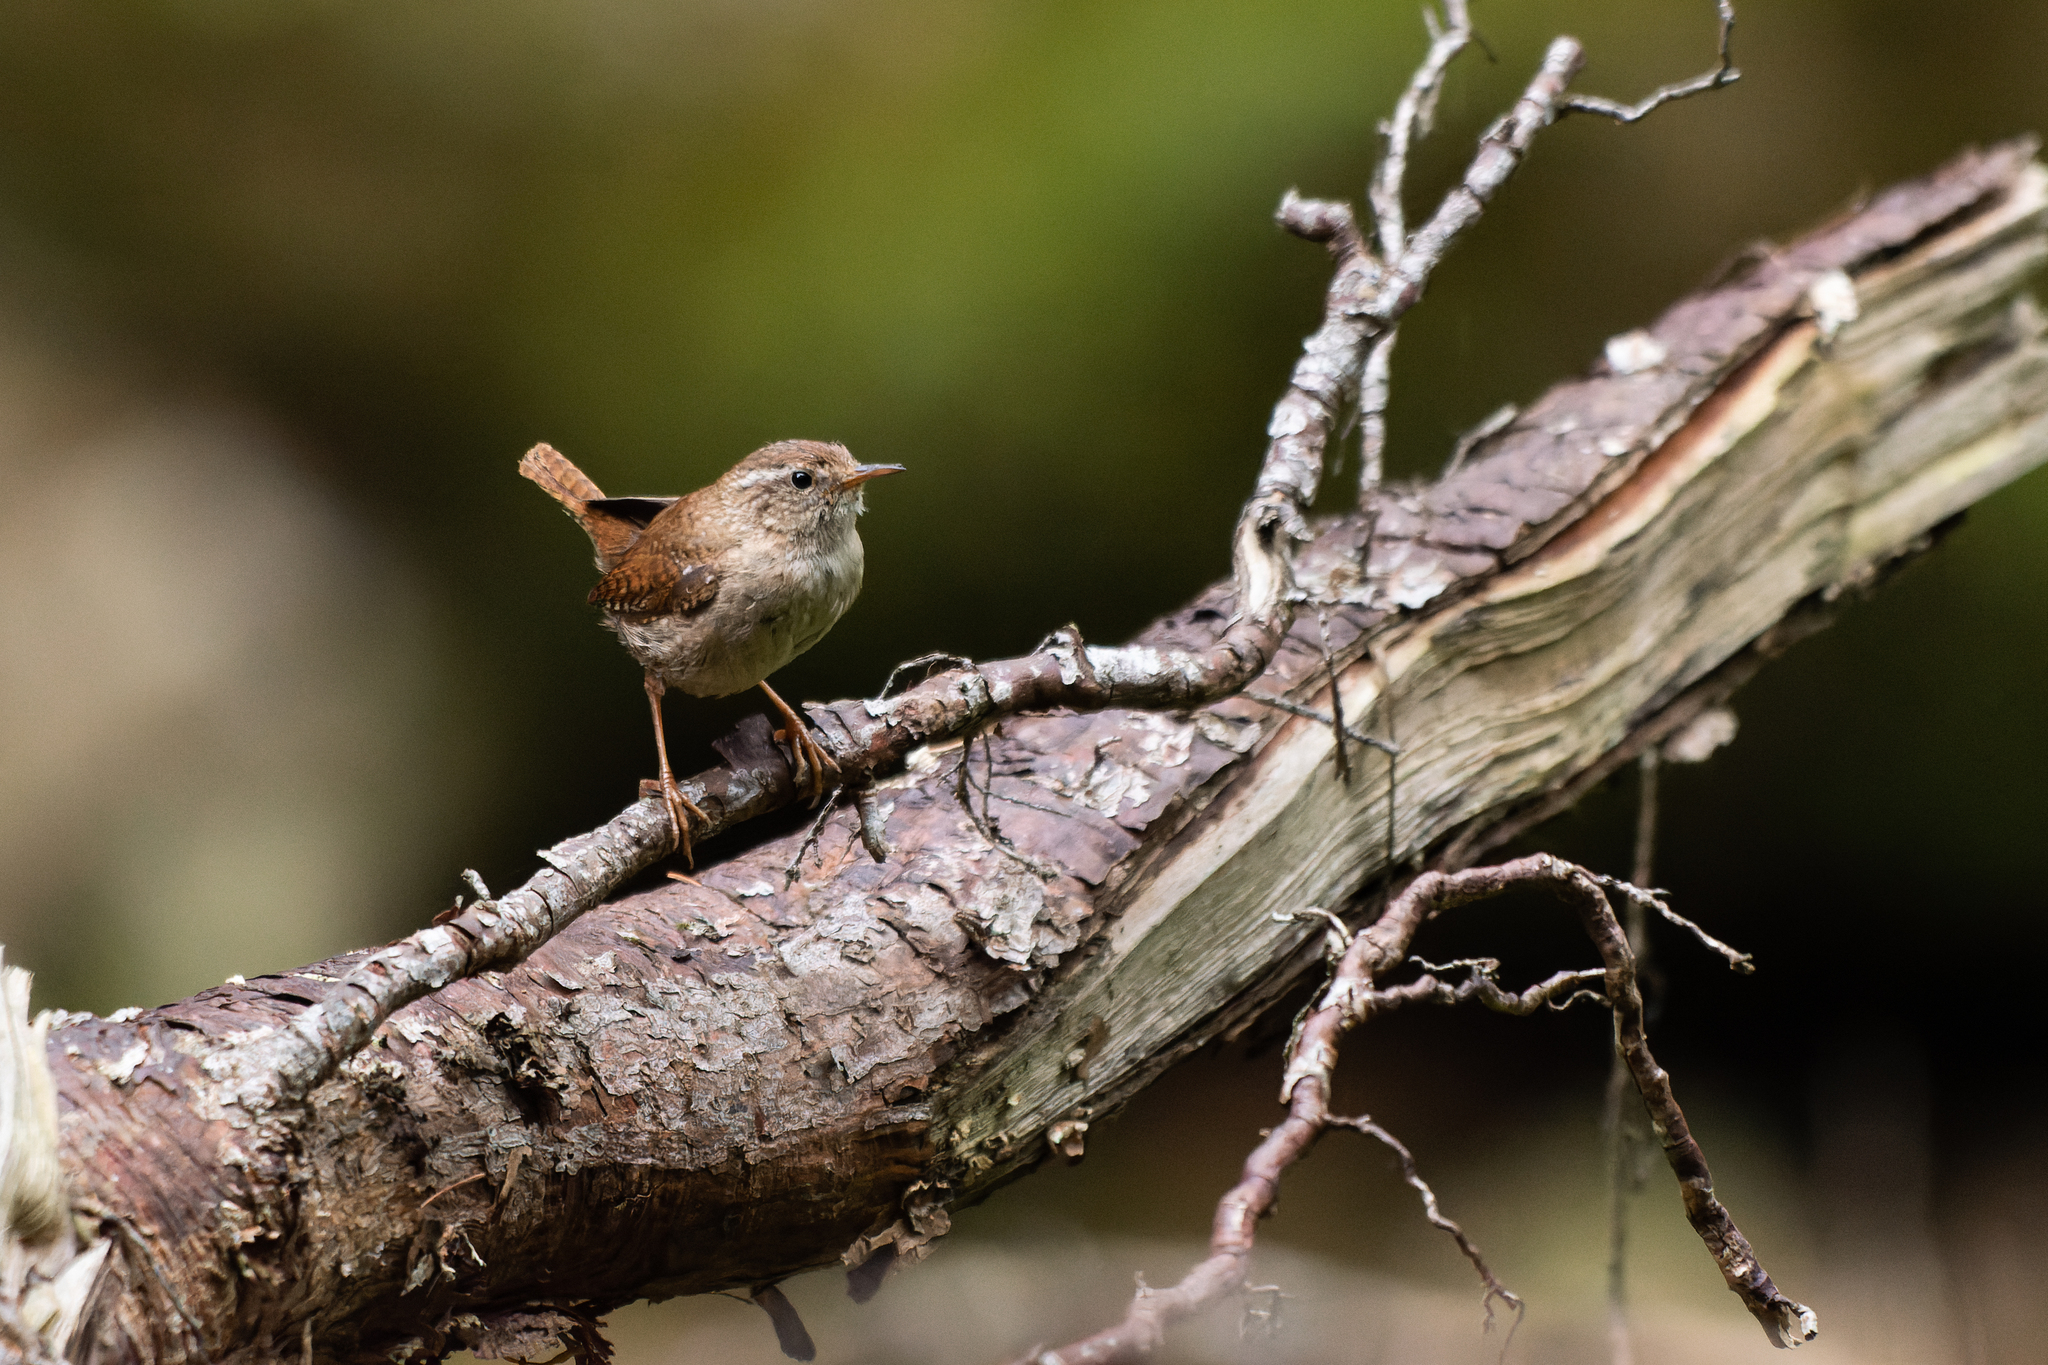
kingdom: Animalia
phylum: Chordata
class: Aves
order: Passeriformes
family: Troglodytidae
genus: Troglodytes
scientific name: Troglodytes troglodytes
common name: Eurasian wren
